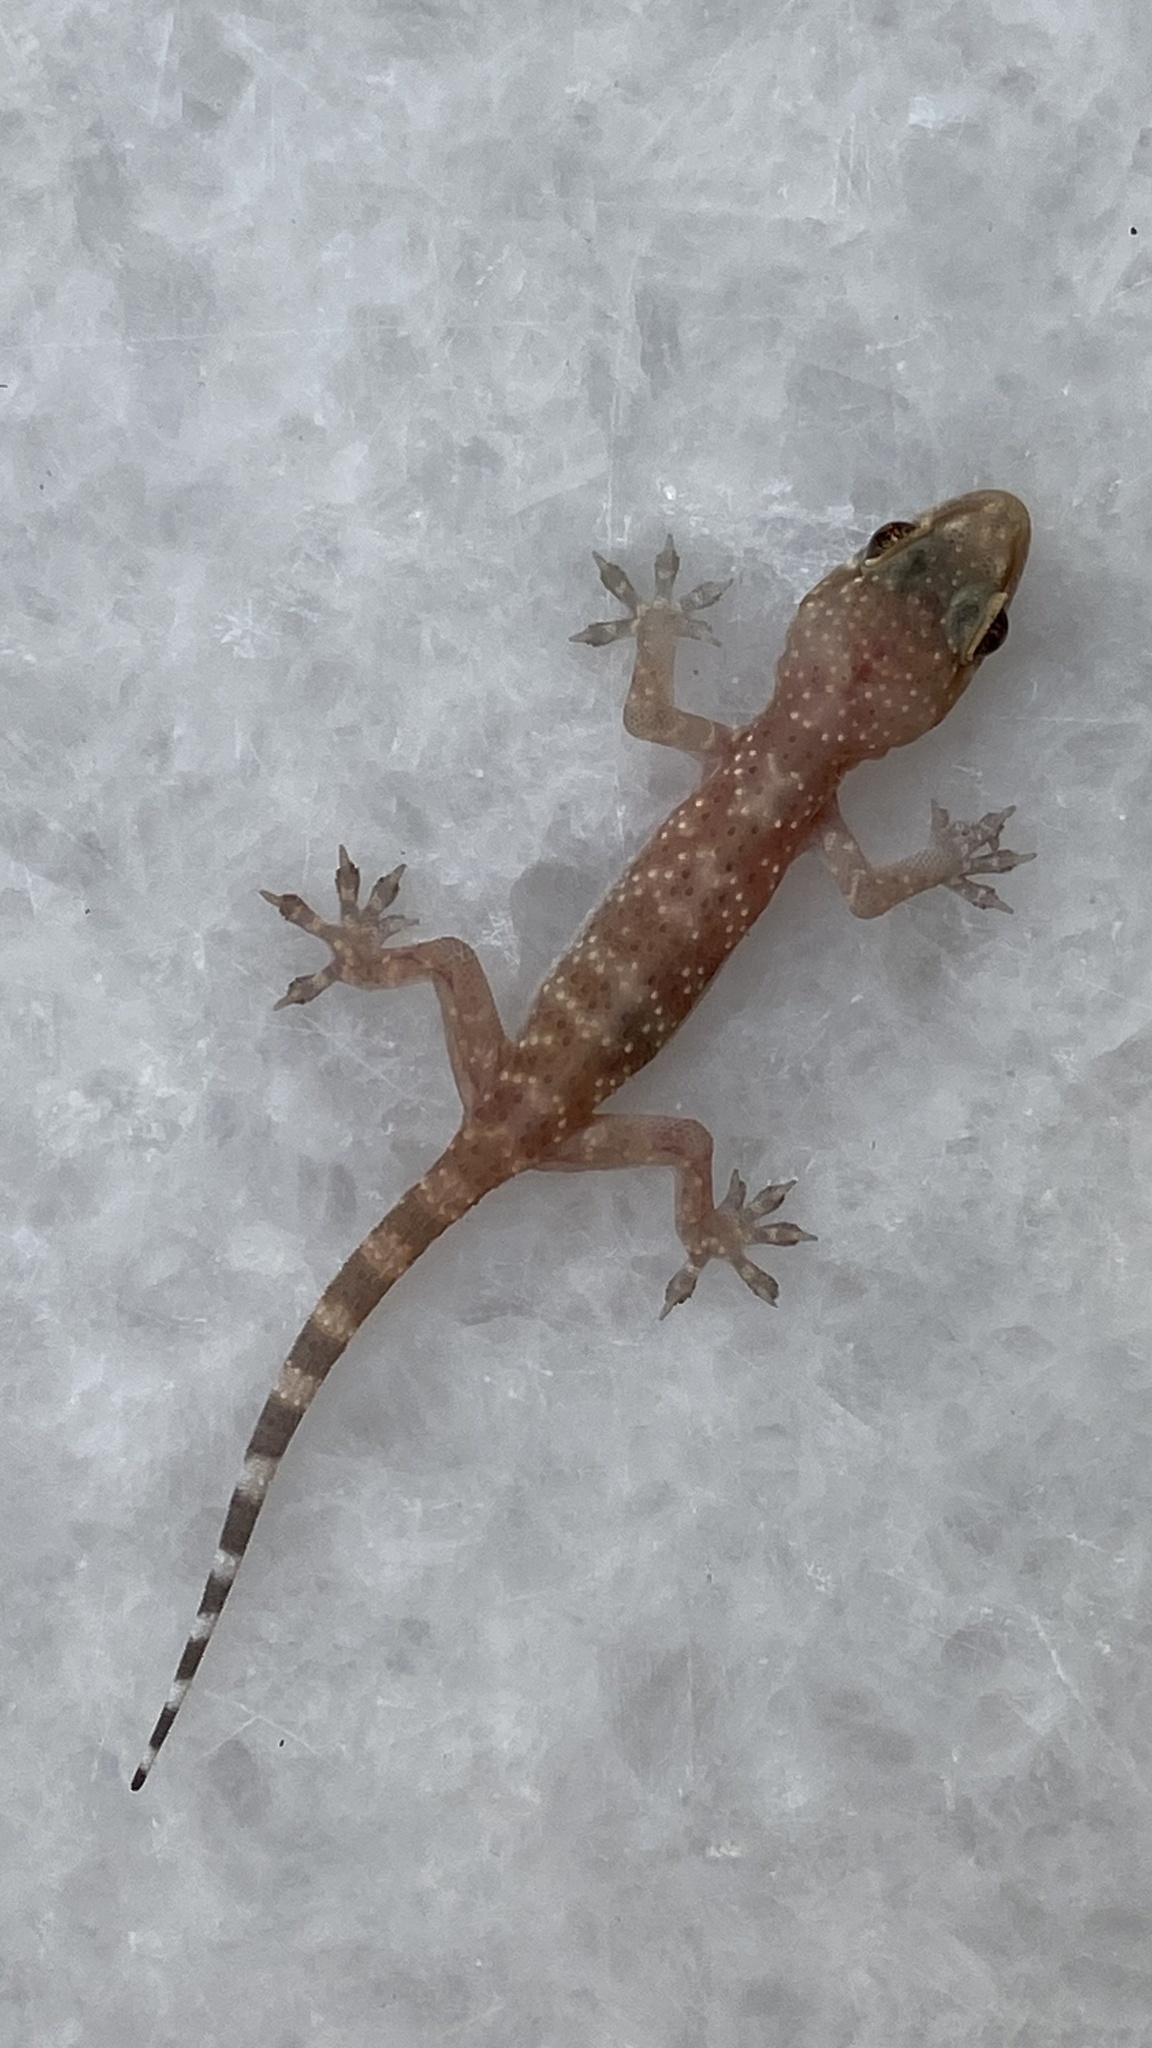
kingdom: Animalia
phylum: Chordata
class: Squamata
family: Gekkonidae
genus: Hemidactylus
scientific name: Hemidactylus turcicus
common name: Turkish gecko
